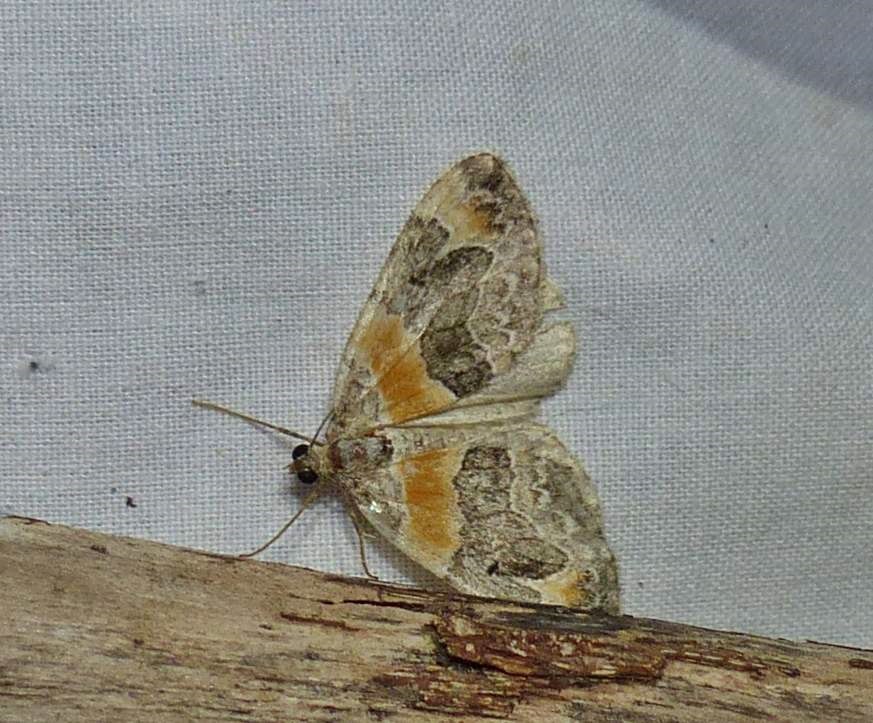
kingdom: Animalia
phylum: Arthropoda
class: Insecta
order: Lepidoptera
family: Geometridae
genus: Dysstroma
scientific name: Dysstroma hersiliata
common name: Orange-barred carpet
